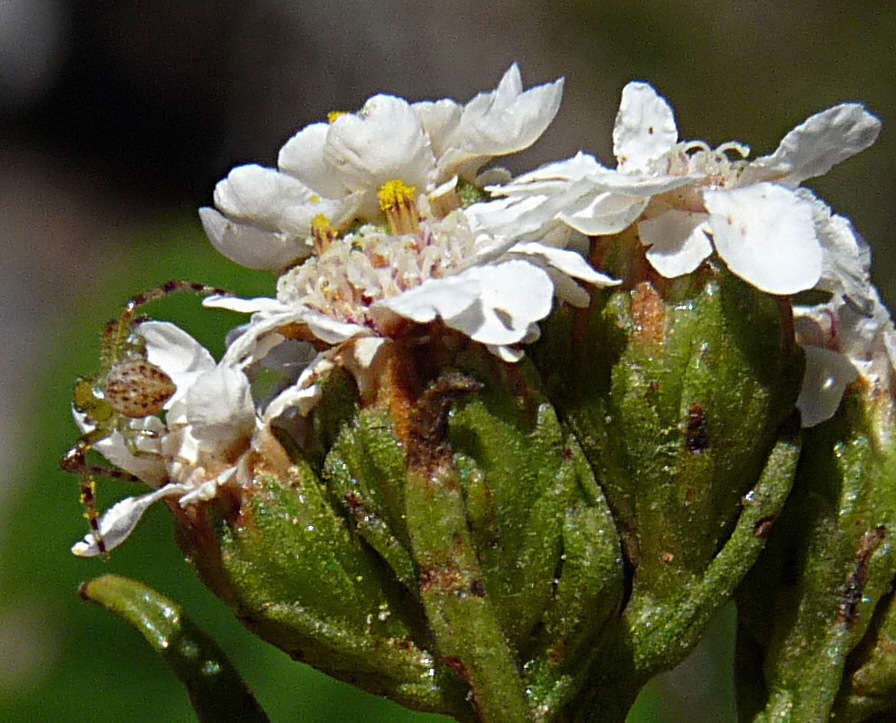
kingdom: Plantae
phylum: Tracheophyta
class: Magnoliopsida
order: Asterales
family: Asteraceae
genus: Ixodia
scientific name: Ixodia achillaeoides
